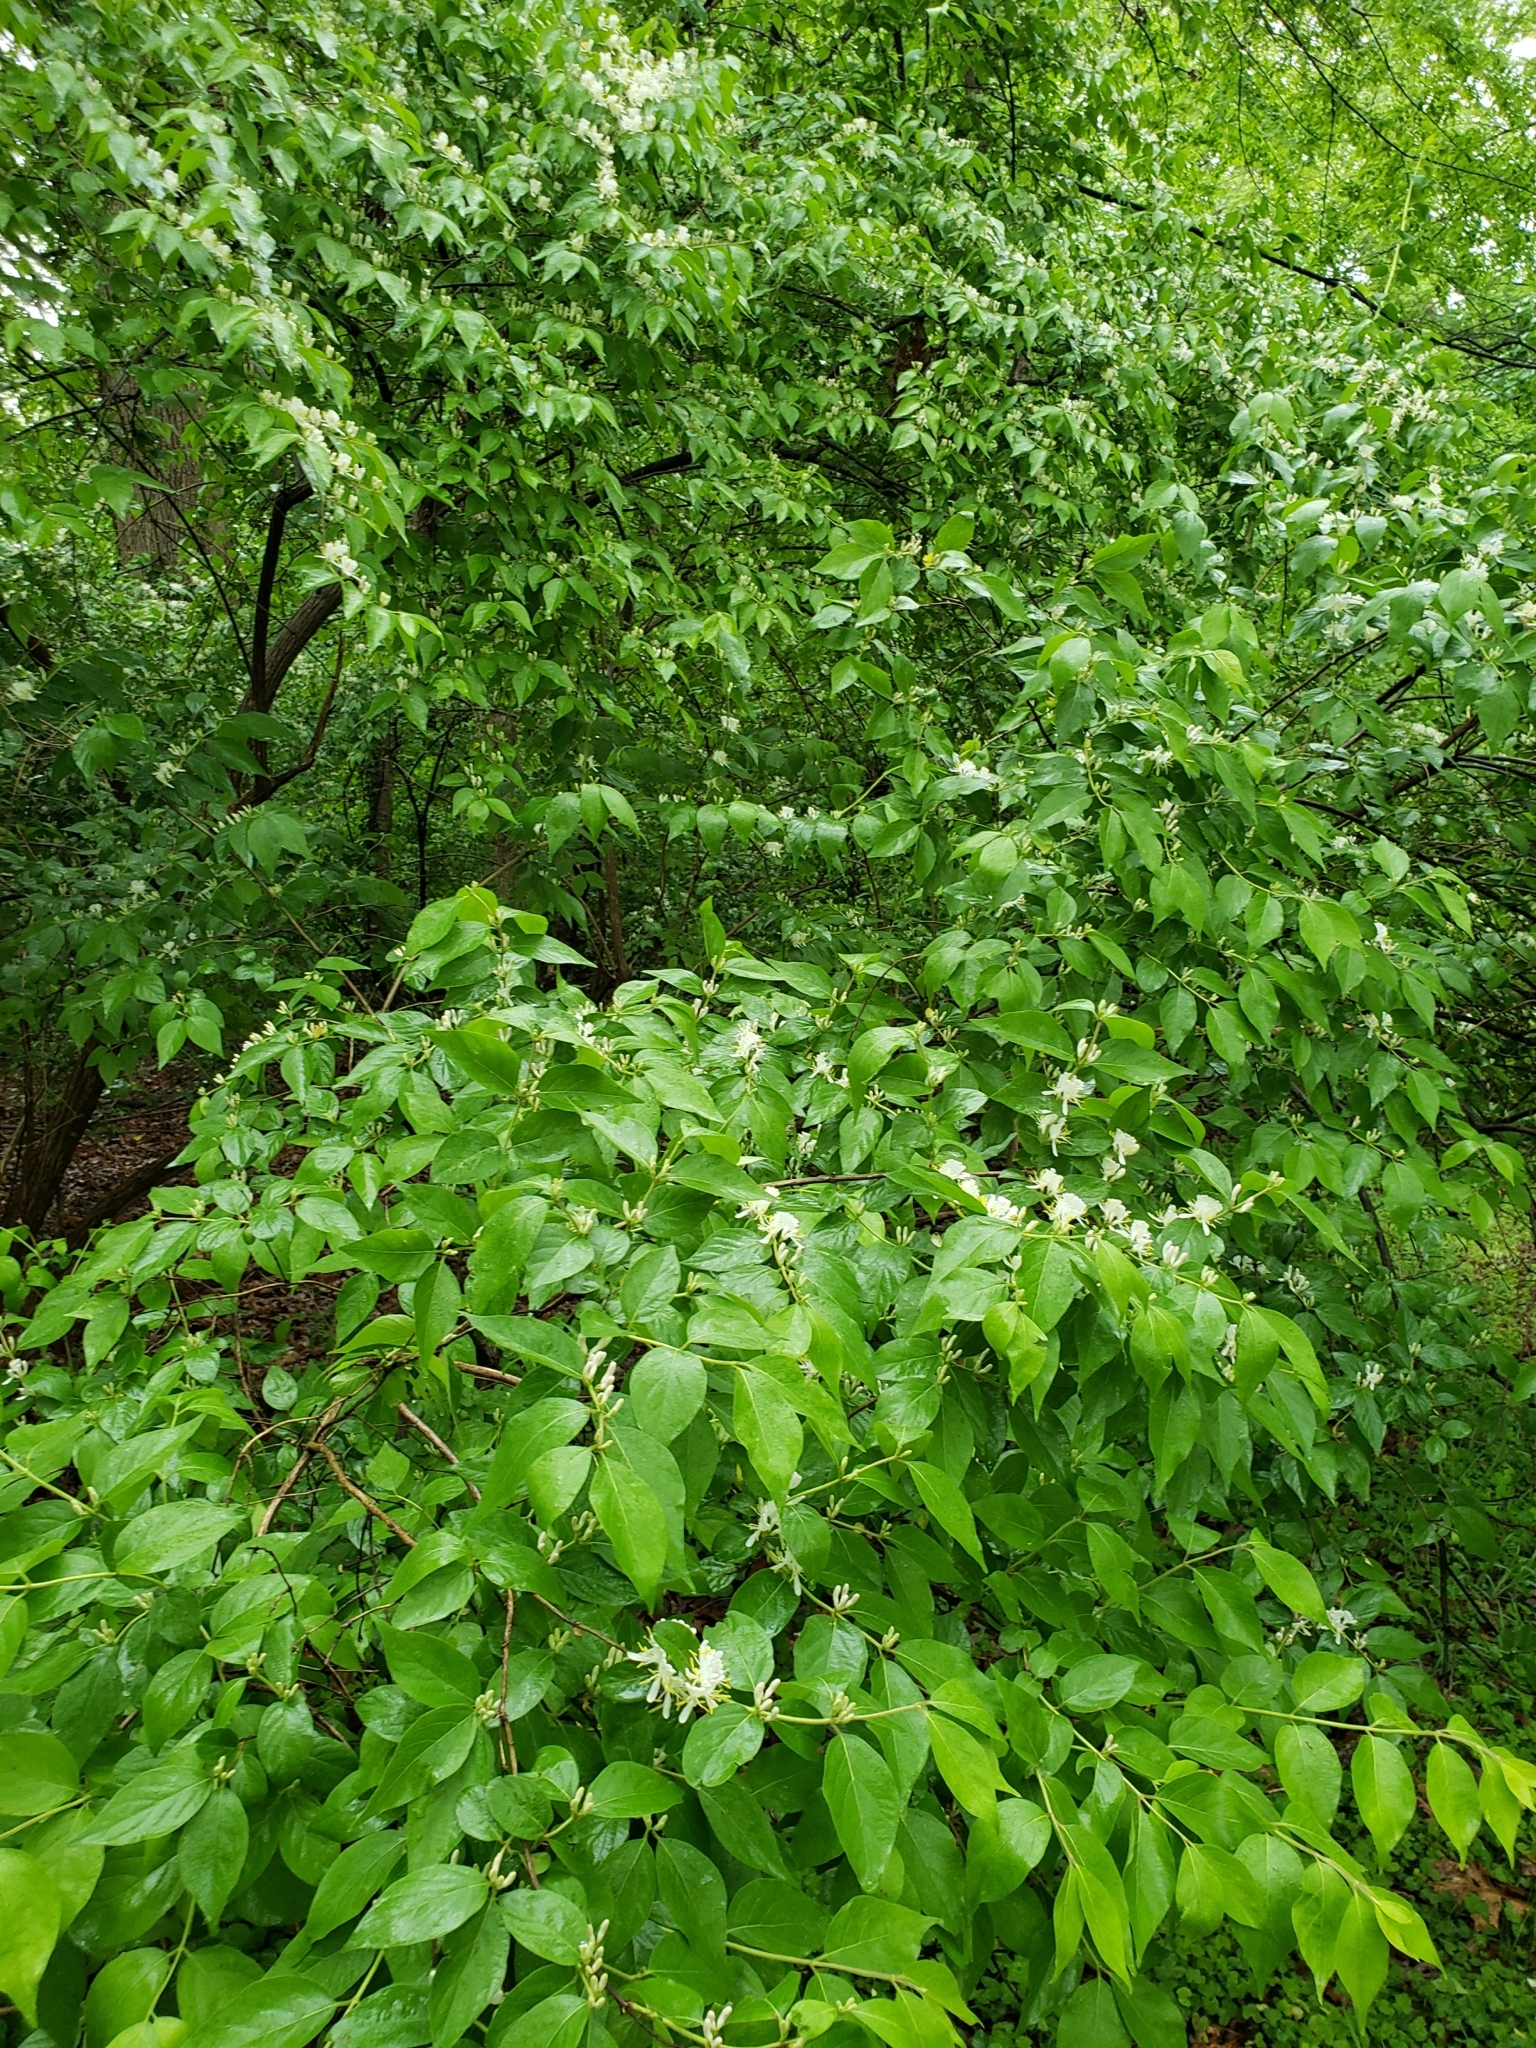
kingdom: Plantae
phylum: Tracheophyta
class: Magnoliopsida
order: Dipsacales
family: Caprifoliaceae
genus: Lonicera
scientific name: Lonicera maackii
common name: Amur honeysuckle
